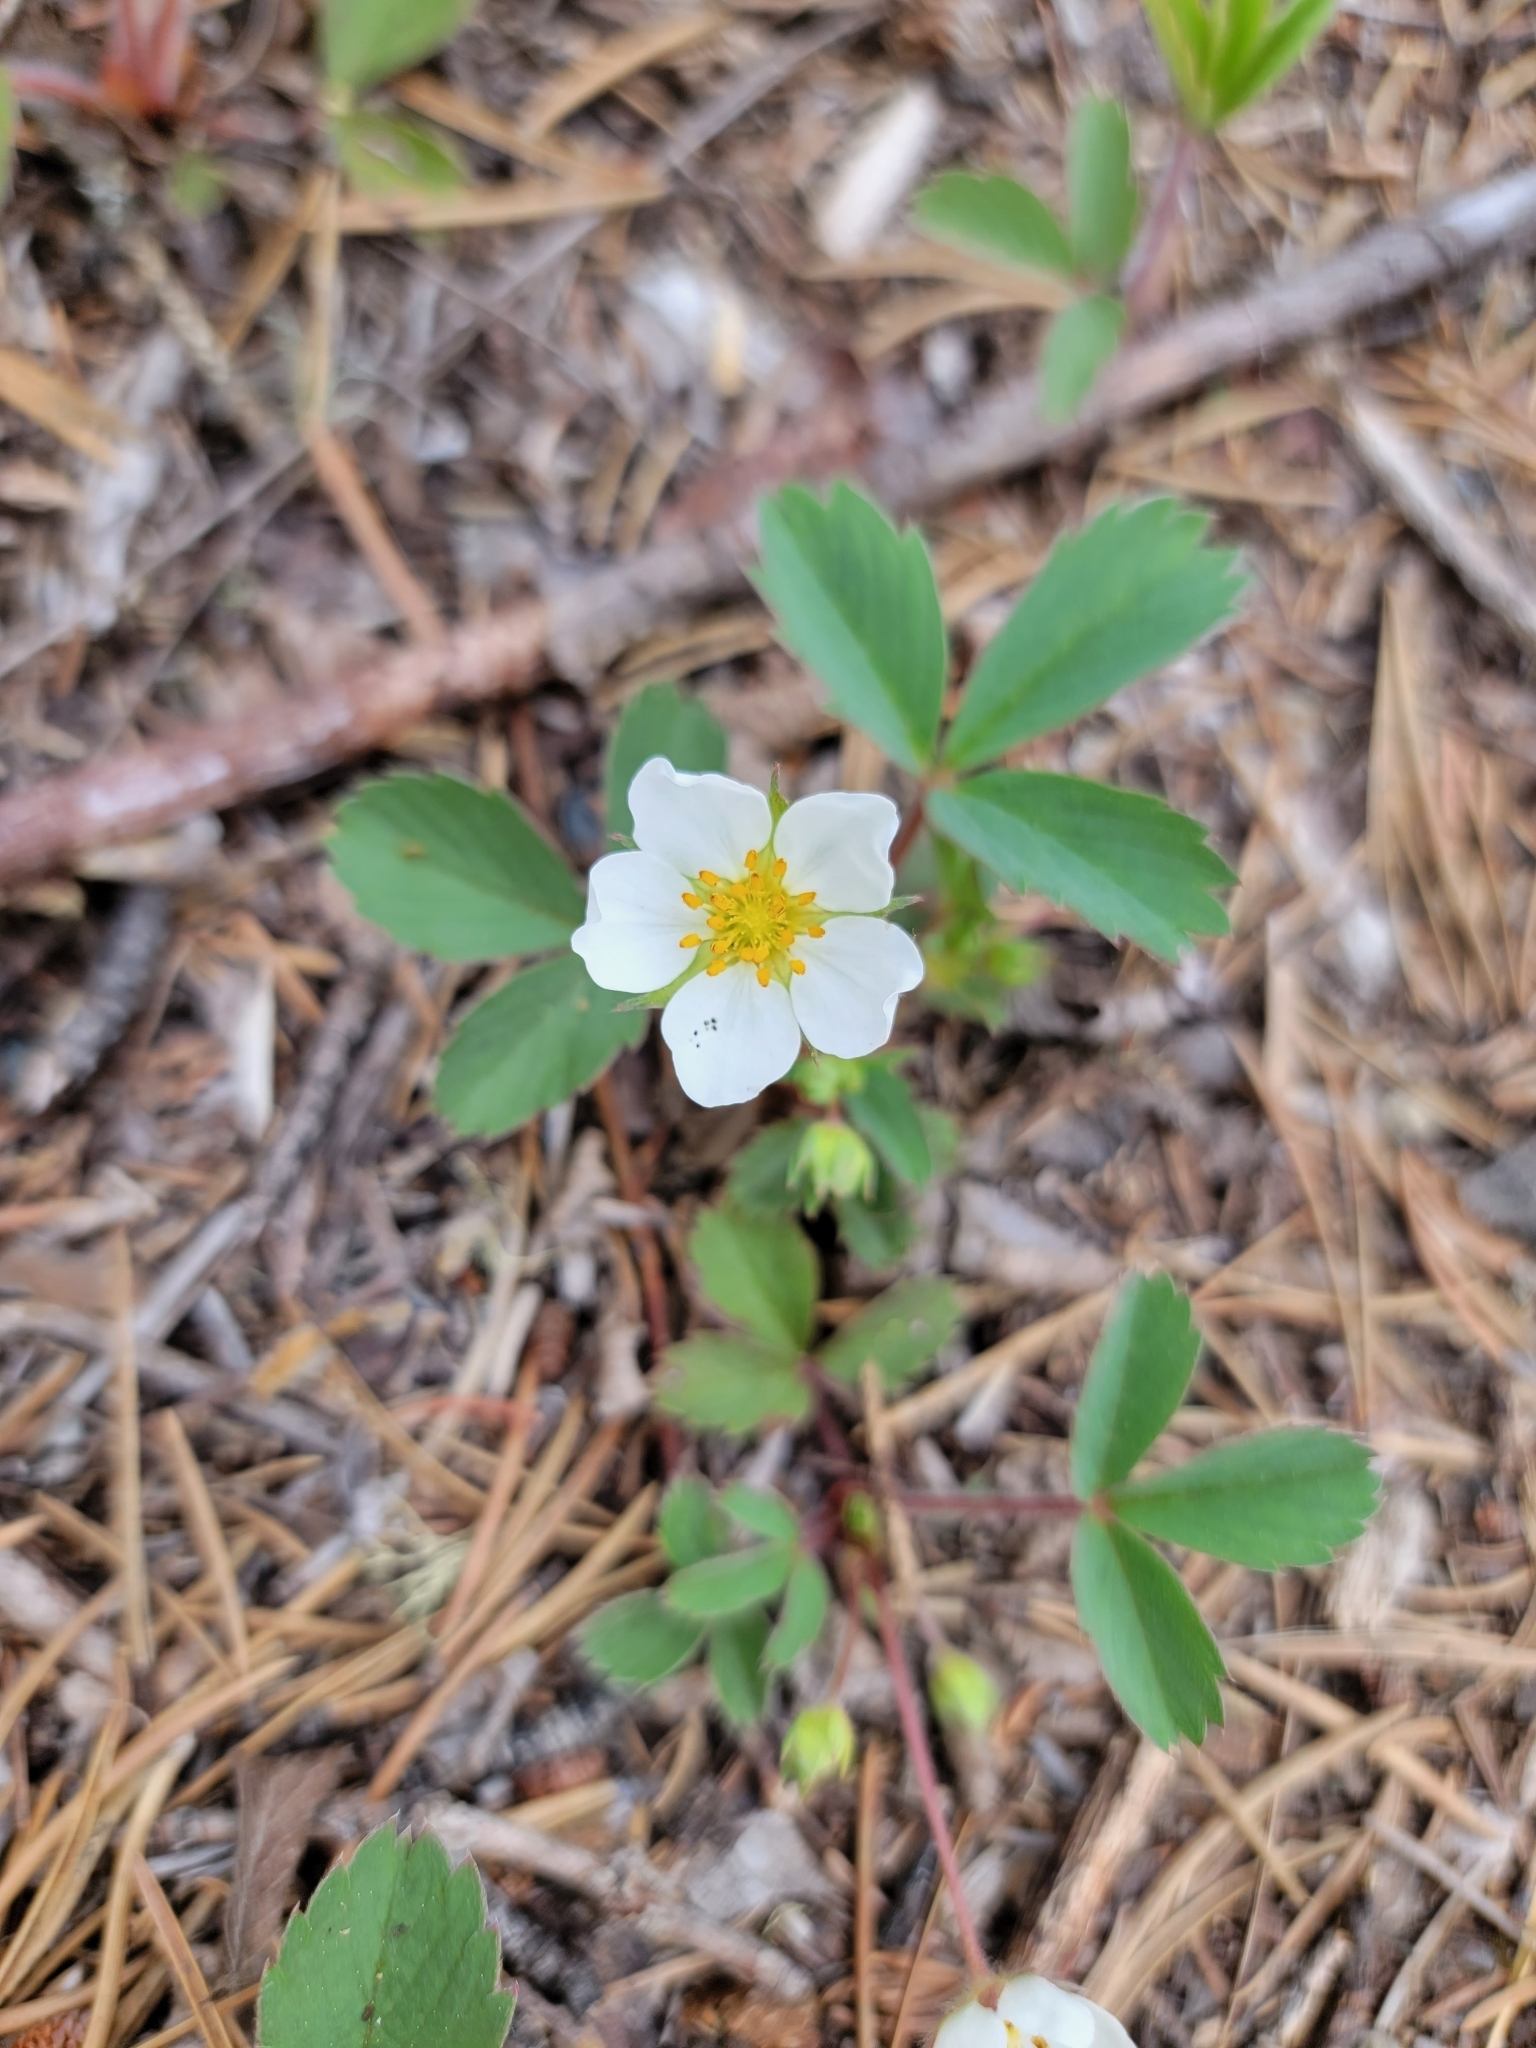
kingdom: Plantae
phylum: Tracheophyta
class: Magnoliopsida
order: Rosales
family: Rosaceae
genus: Fragaria
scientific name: Fragaria virginiana
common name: Thickleaved wild strawberry
